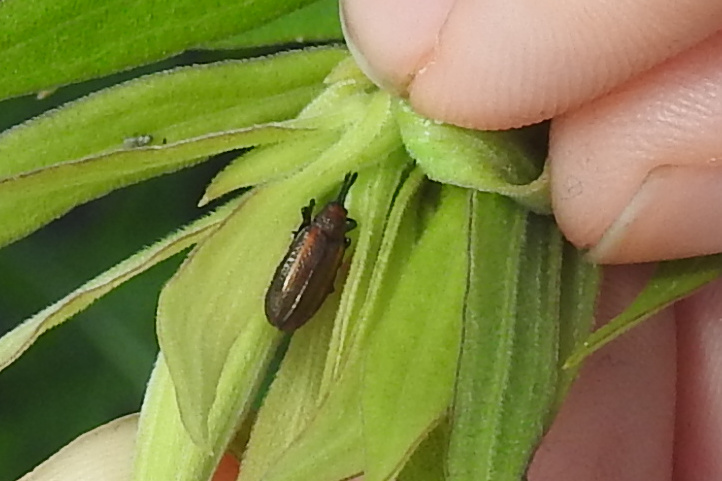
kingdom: Animalia
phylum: Arthropoda
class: Insecta
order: Coleoptera
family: Chrysomelidae
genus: Microrhopala
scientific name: Microrhopala vittata
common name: Goldenrod leaf miner beetle
